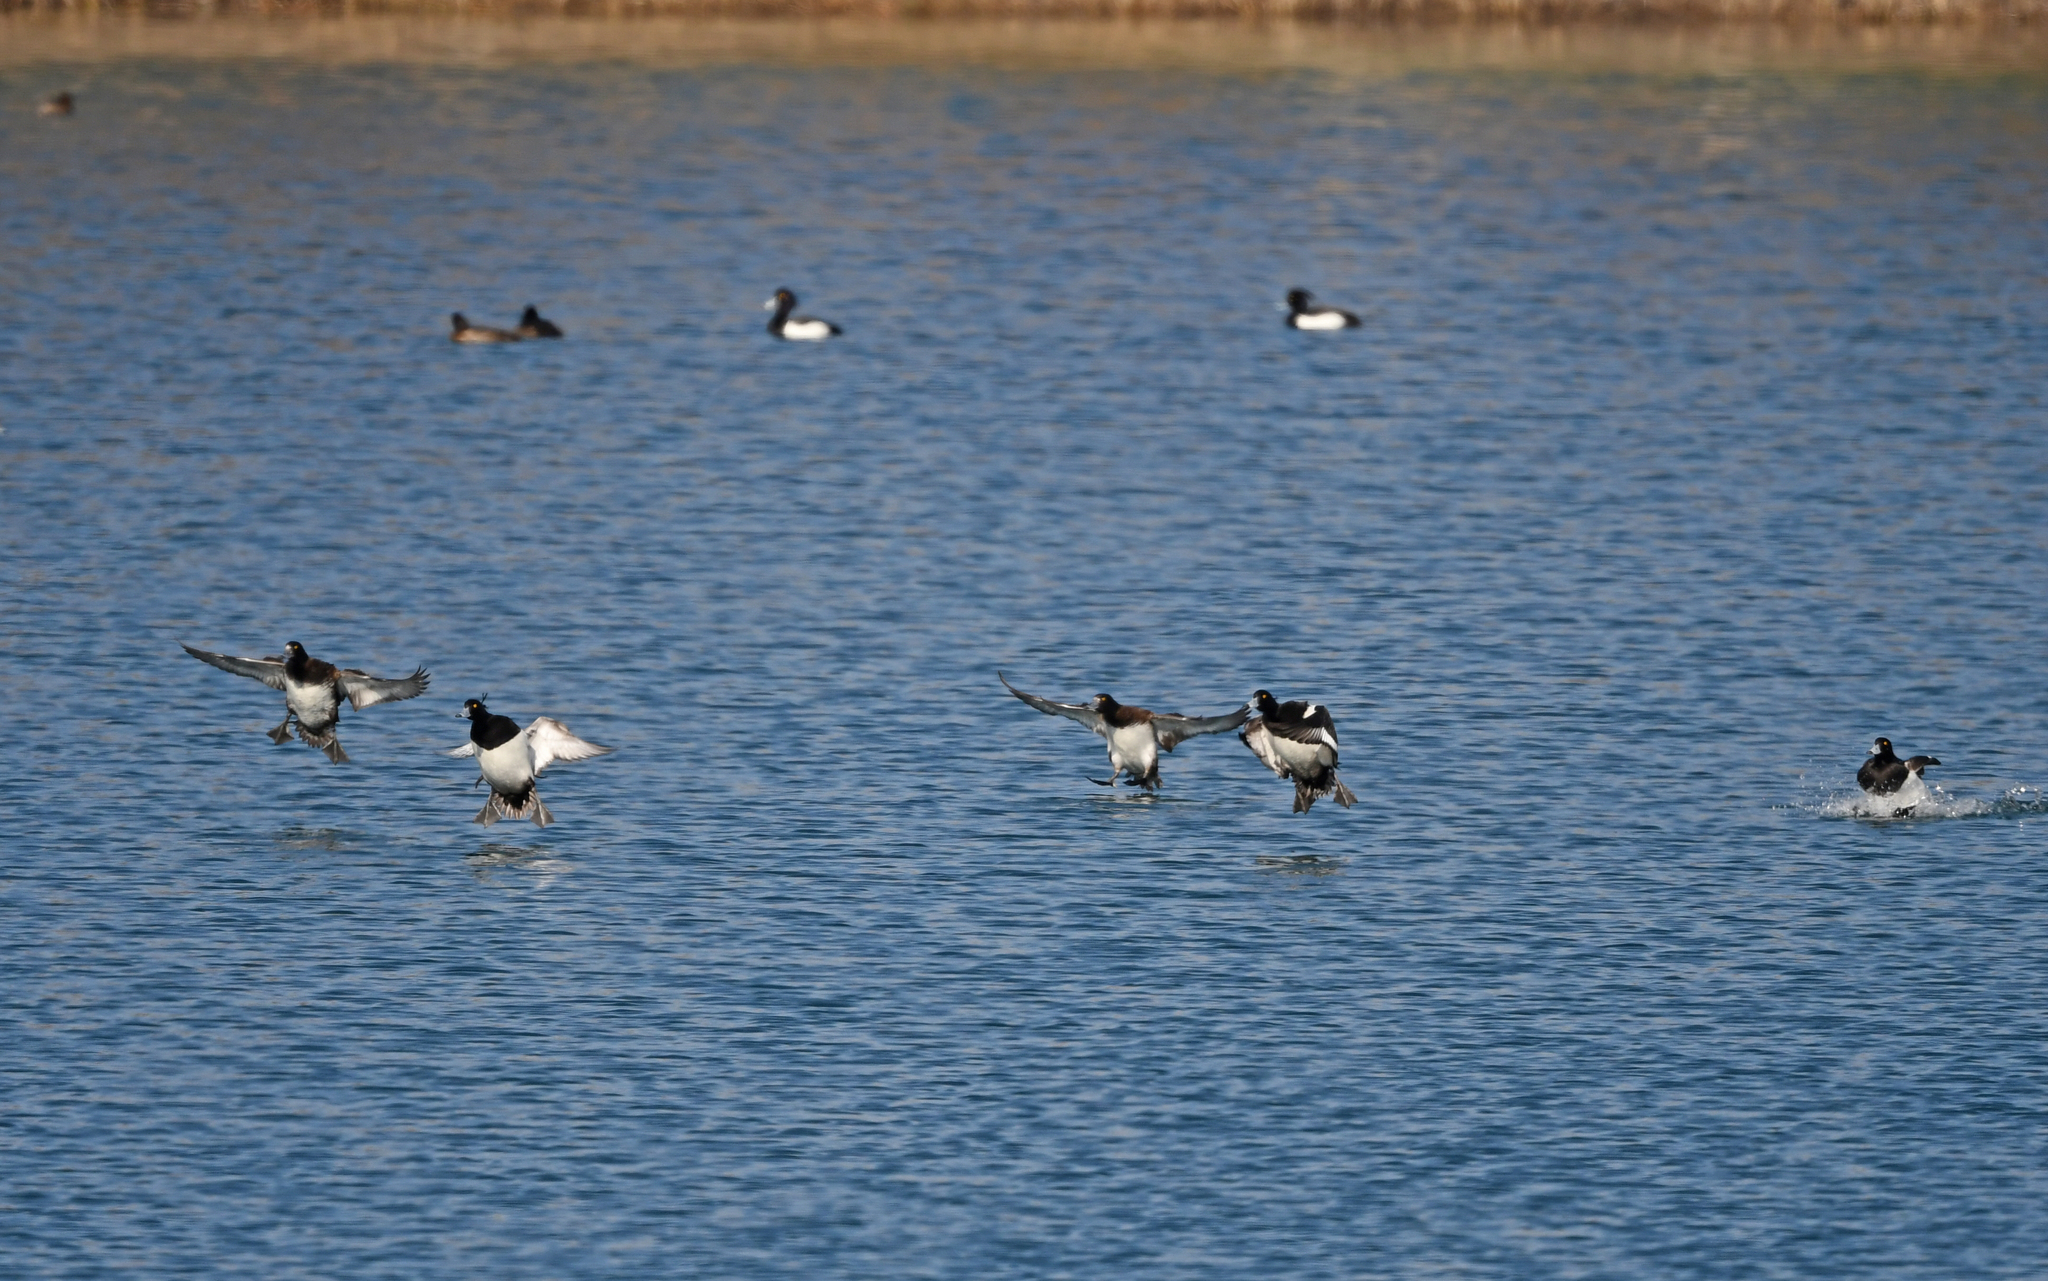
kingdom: Animalia
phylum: Chordata
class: Aves
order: Anseriformes
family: Anatidae
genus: Aythya
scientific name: Aythya fuligula
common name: Tufted duck
